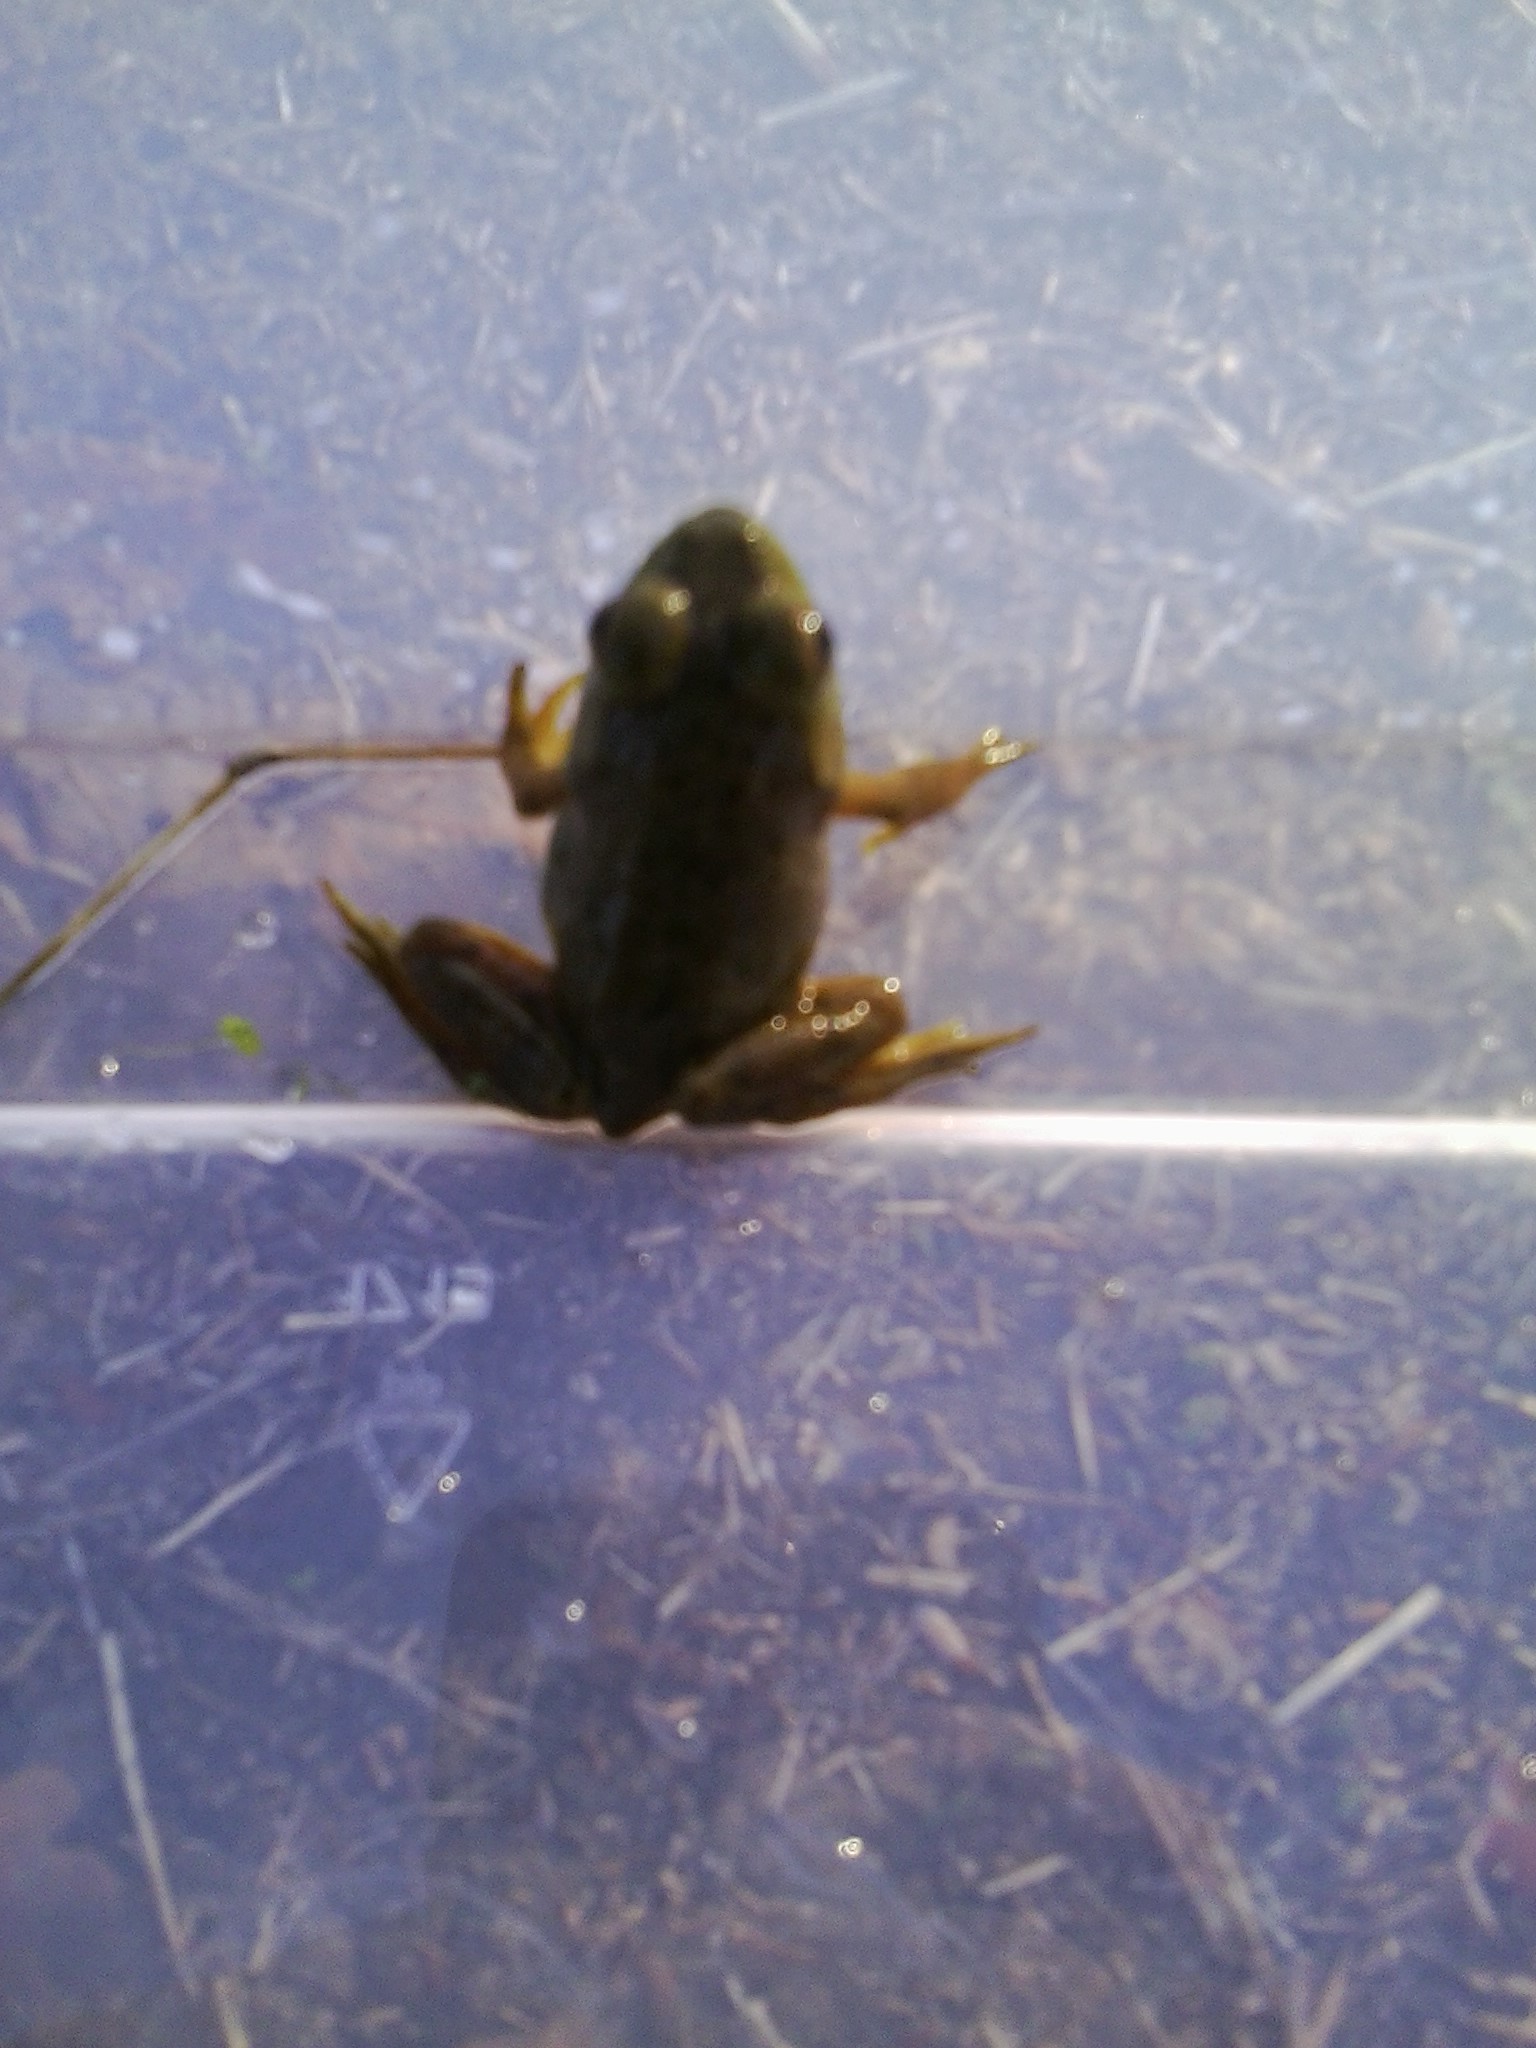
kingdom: Animalia
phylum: Chordata
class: Amphibia
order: Anura
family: Ranidae
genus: Lithobates
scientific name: Lithobates catesbeianus
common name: American bullfrog
